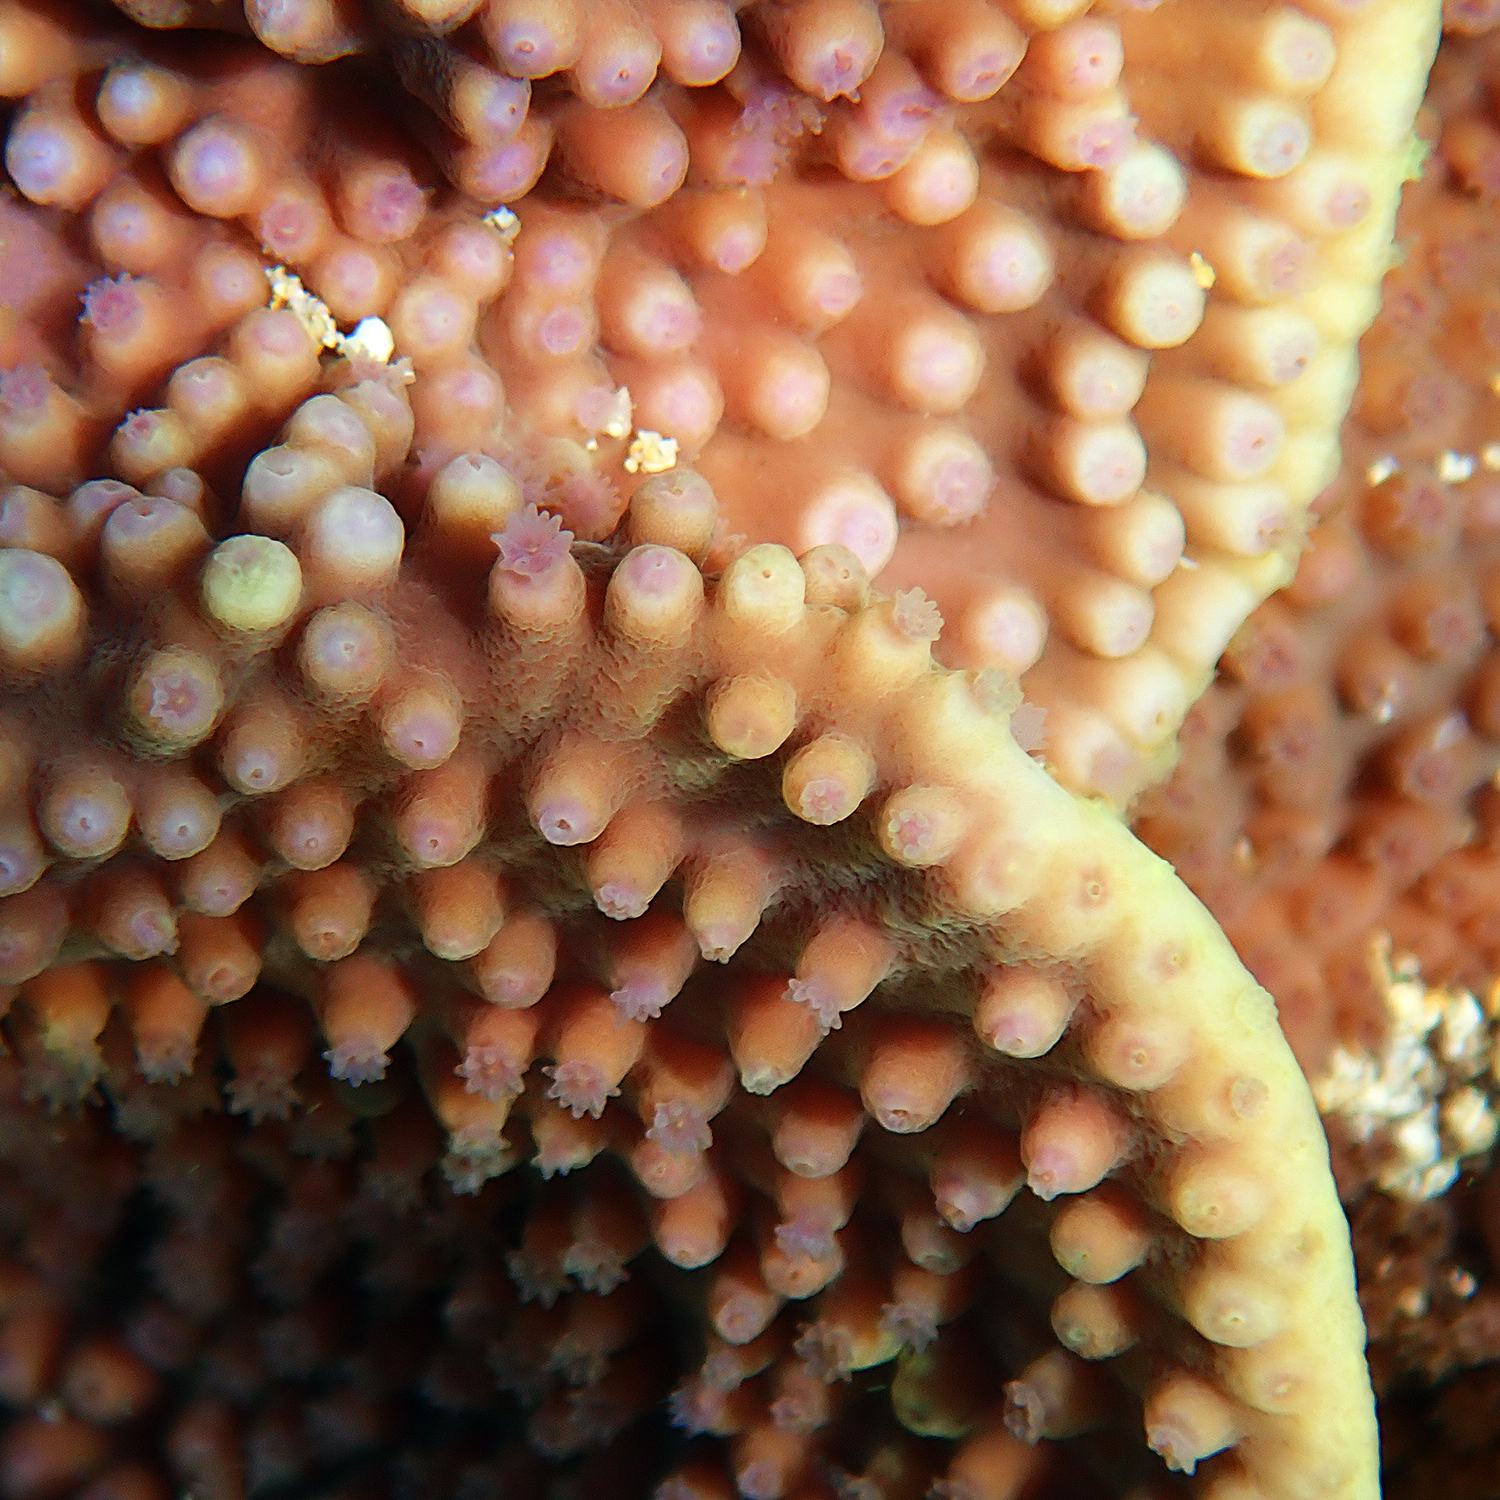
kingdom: Animalia
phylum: Cnidaria
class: Anthozoa
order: Scleractinia
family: Dendrophylliidae
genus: Turbinaria
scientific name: Turbinaria heronensis
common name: Disc coral
